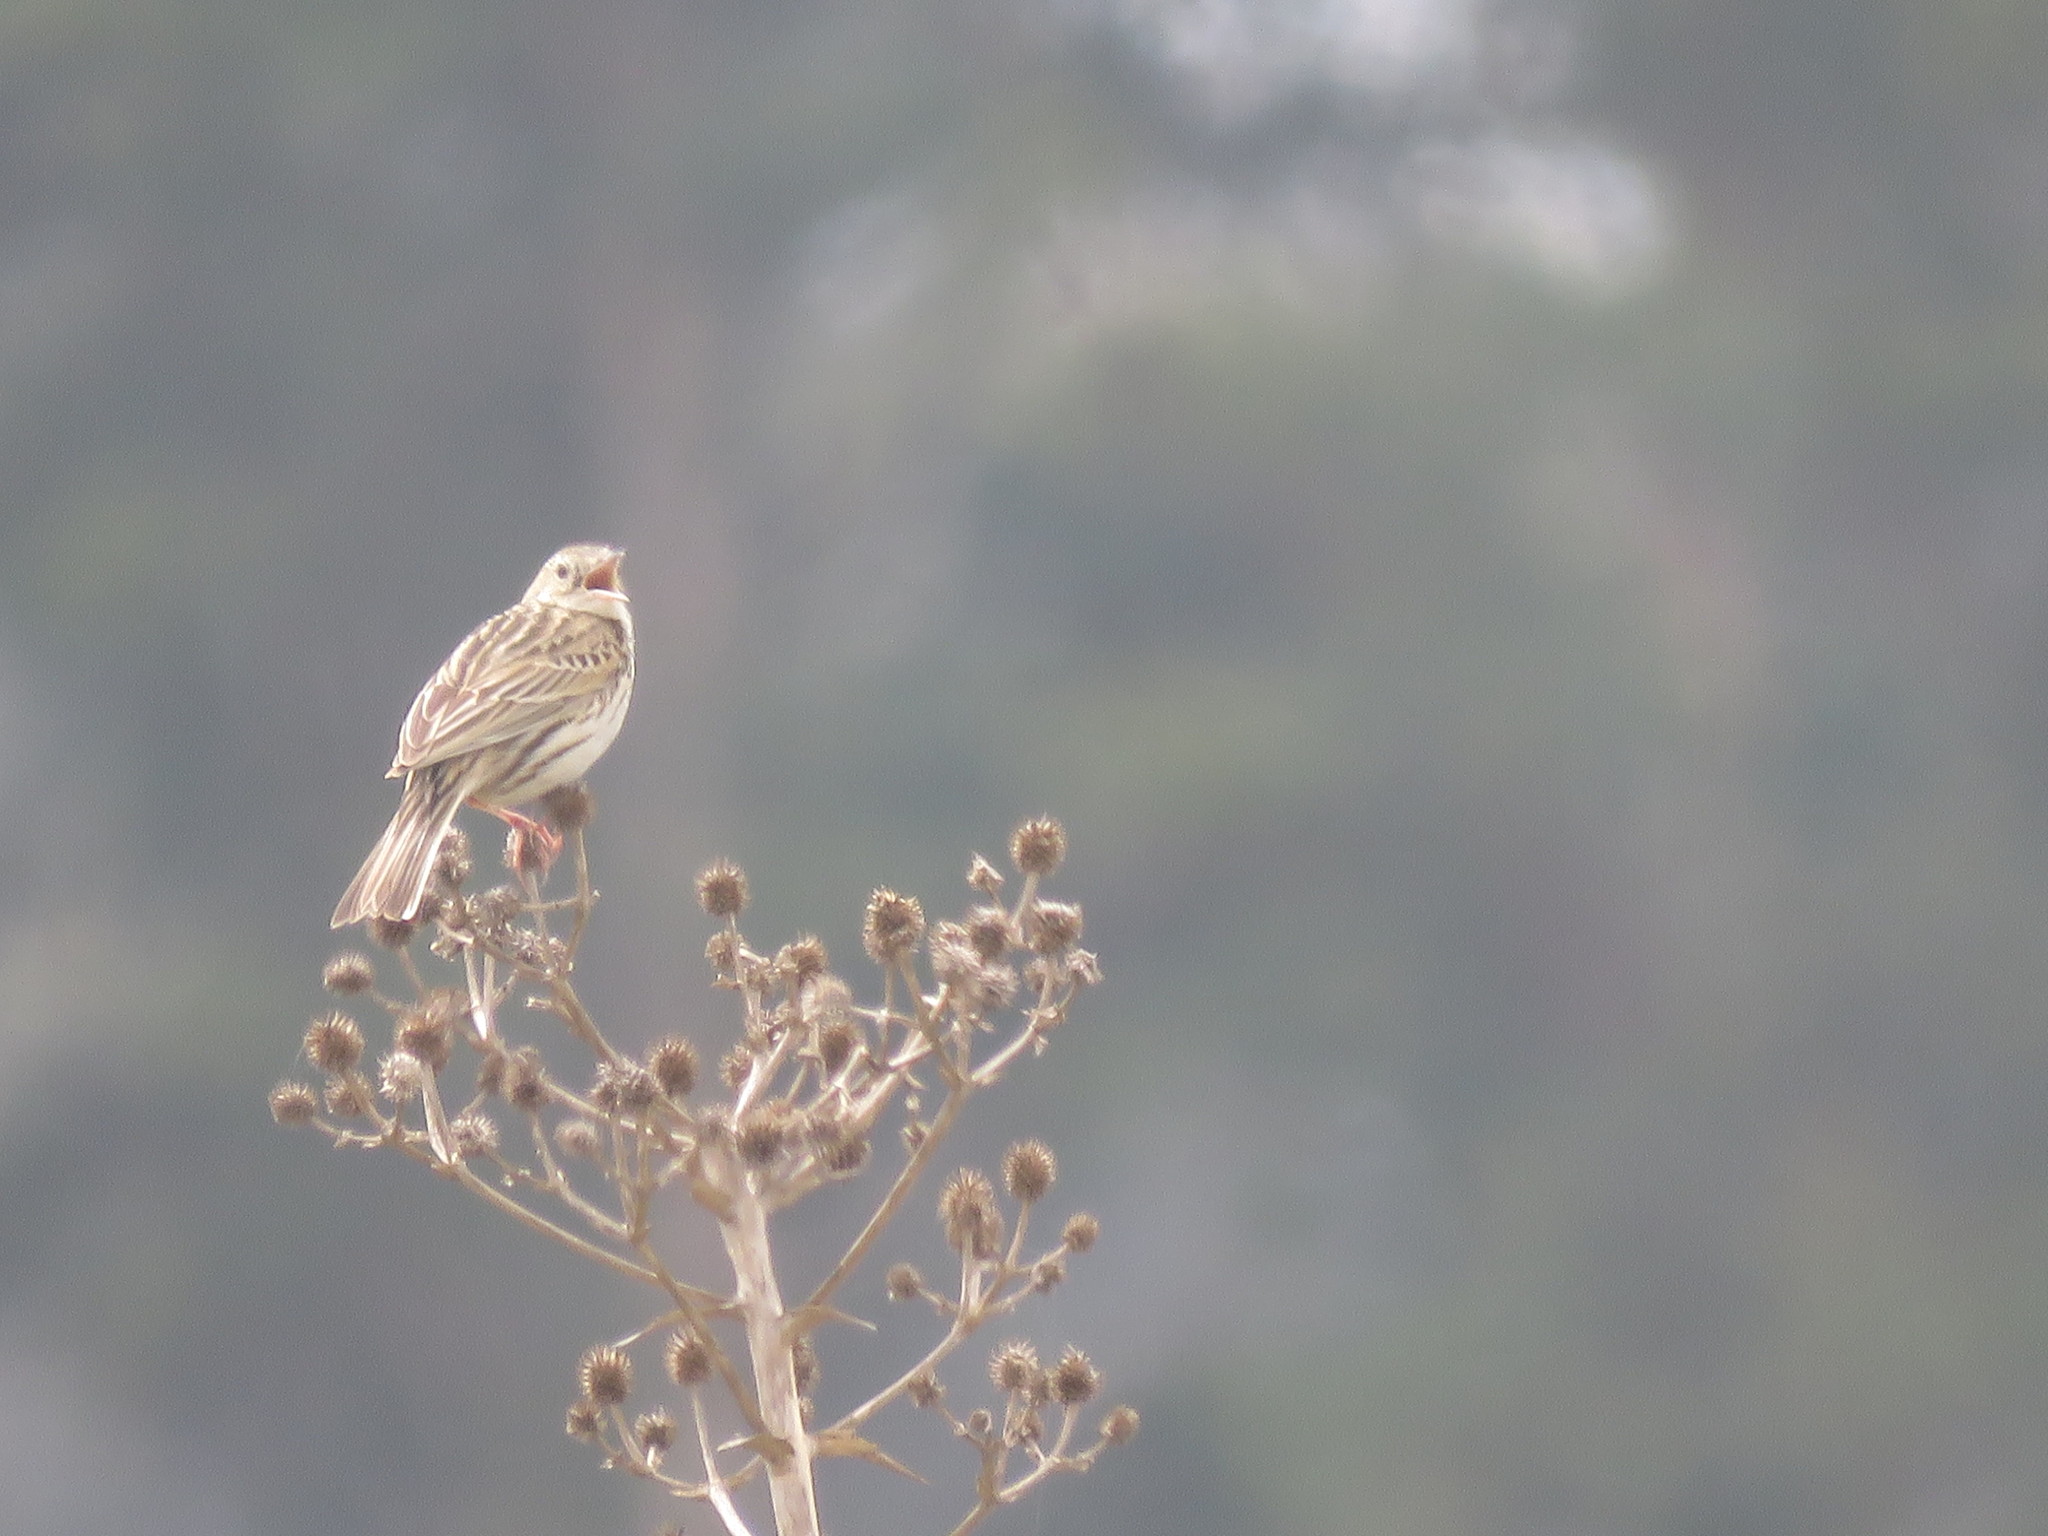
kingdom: Animalia
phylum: Chordata
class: Aves
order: Passeriformes
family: Motacillidae
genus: Anthus
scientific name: Anthus hellmayri
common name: Hellmayr's pipit
